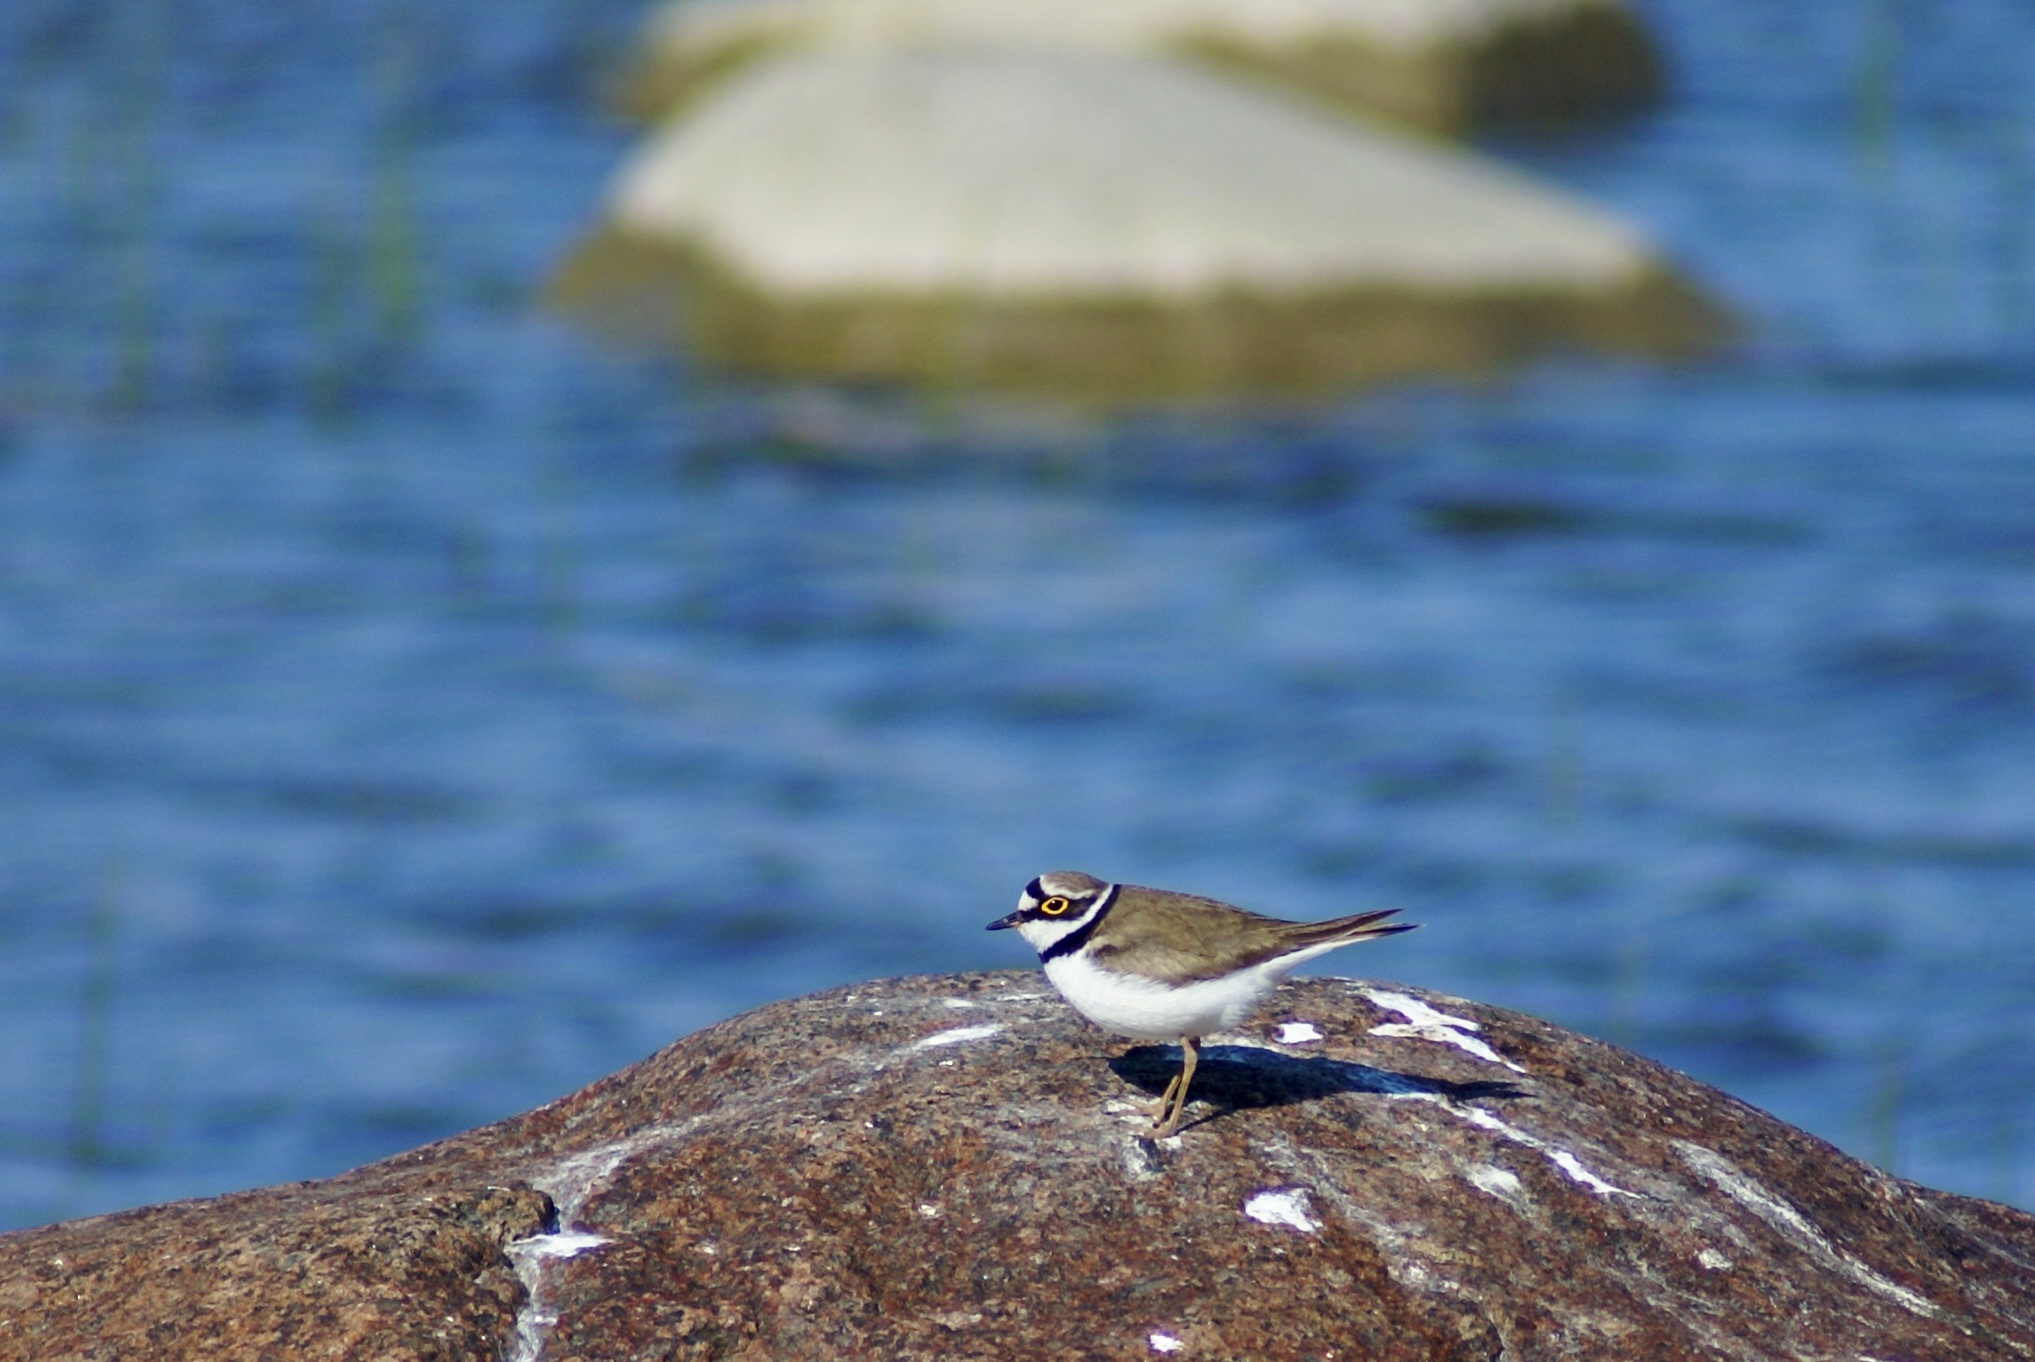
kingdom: Animalia
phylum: Chordata
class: Aves
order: Charadriiformes
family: Charadriidae
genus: Charadrius
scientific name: Charadrius hiaticula
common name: Common ringed plover
